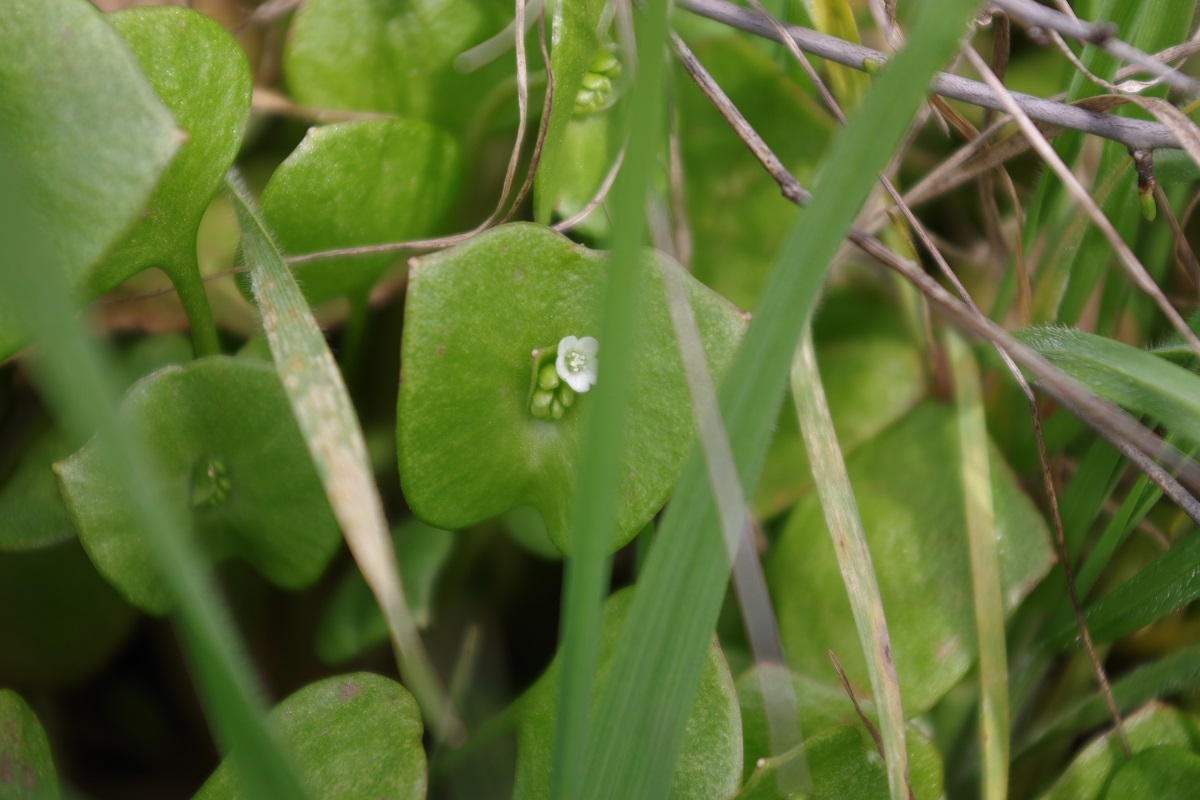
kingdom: Plantae
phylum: Tracheophyta
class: Magnoliopsida
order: Caryophyllales
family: Montiaceae
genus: Claytonia
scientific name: Claytonia perfoliata
